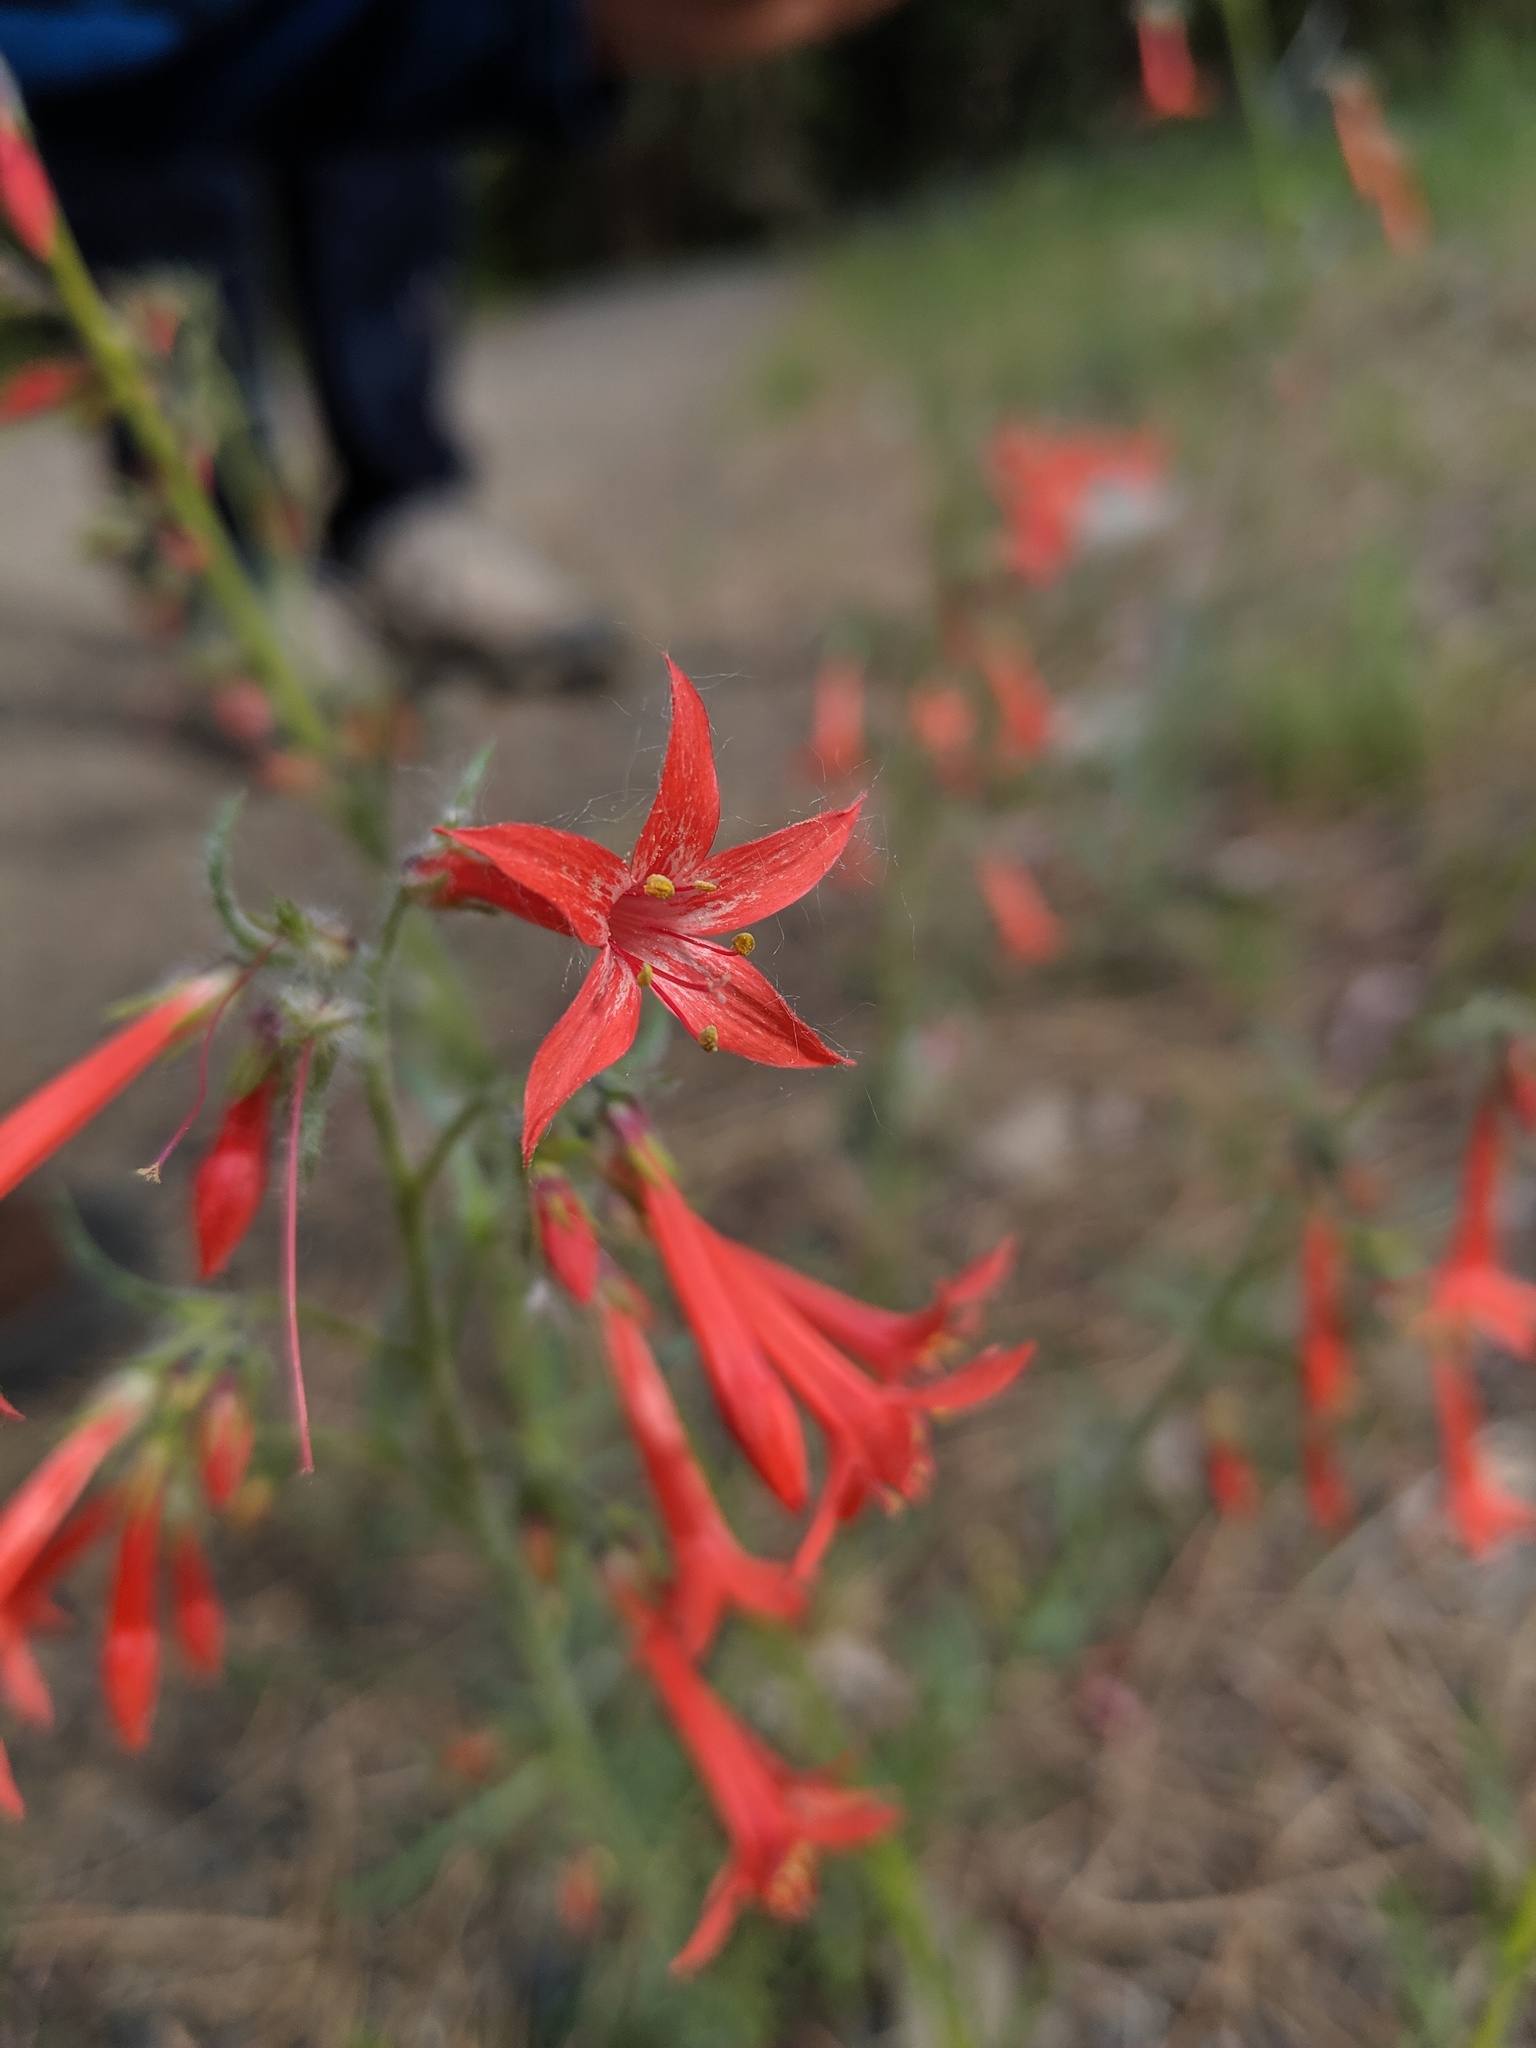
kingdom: Plantae
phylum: Tracheophyta
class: Magnoliopsida
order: Ericales
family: Polemoniaceae
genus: Ipomopsis
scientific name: Ipomopsis aggregata
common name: Scarlet gilia
